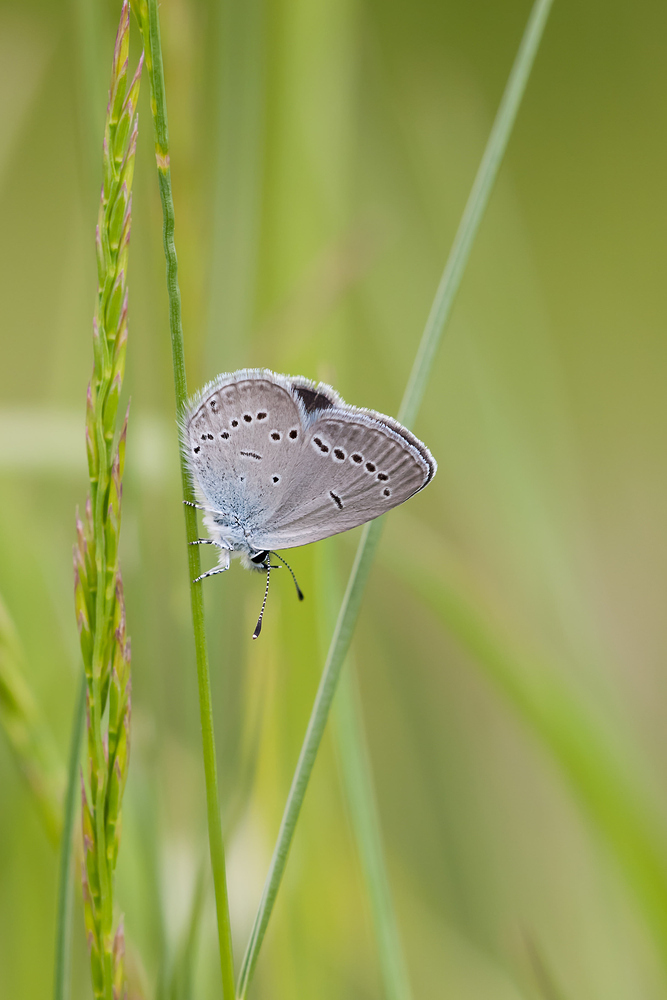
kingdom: Animalia
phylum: Arthropoda
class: Insecta
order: Lepidoptera
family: Lycaenidae
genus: Cupido
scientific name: Cupido minimus
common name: Small blue
